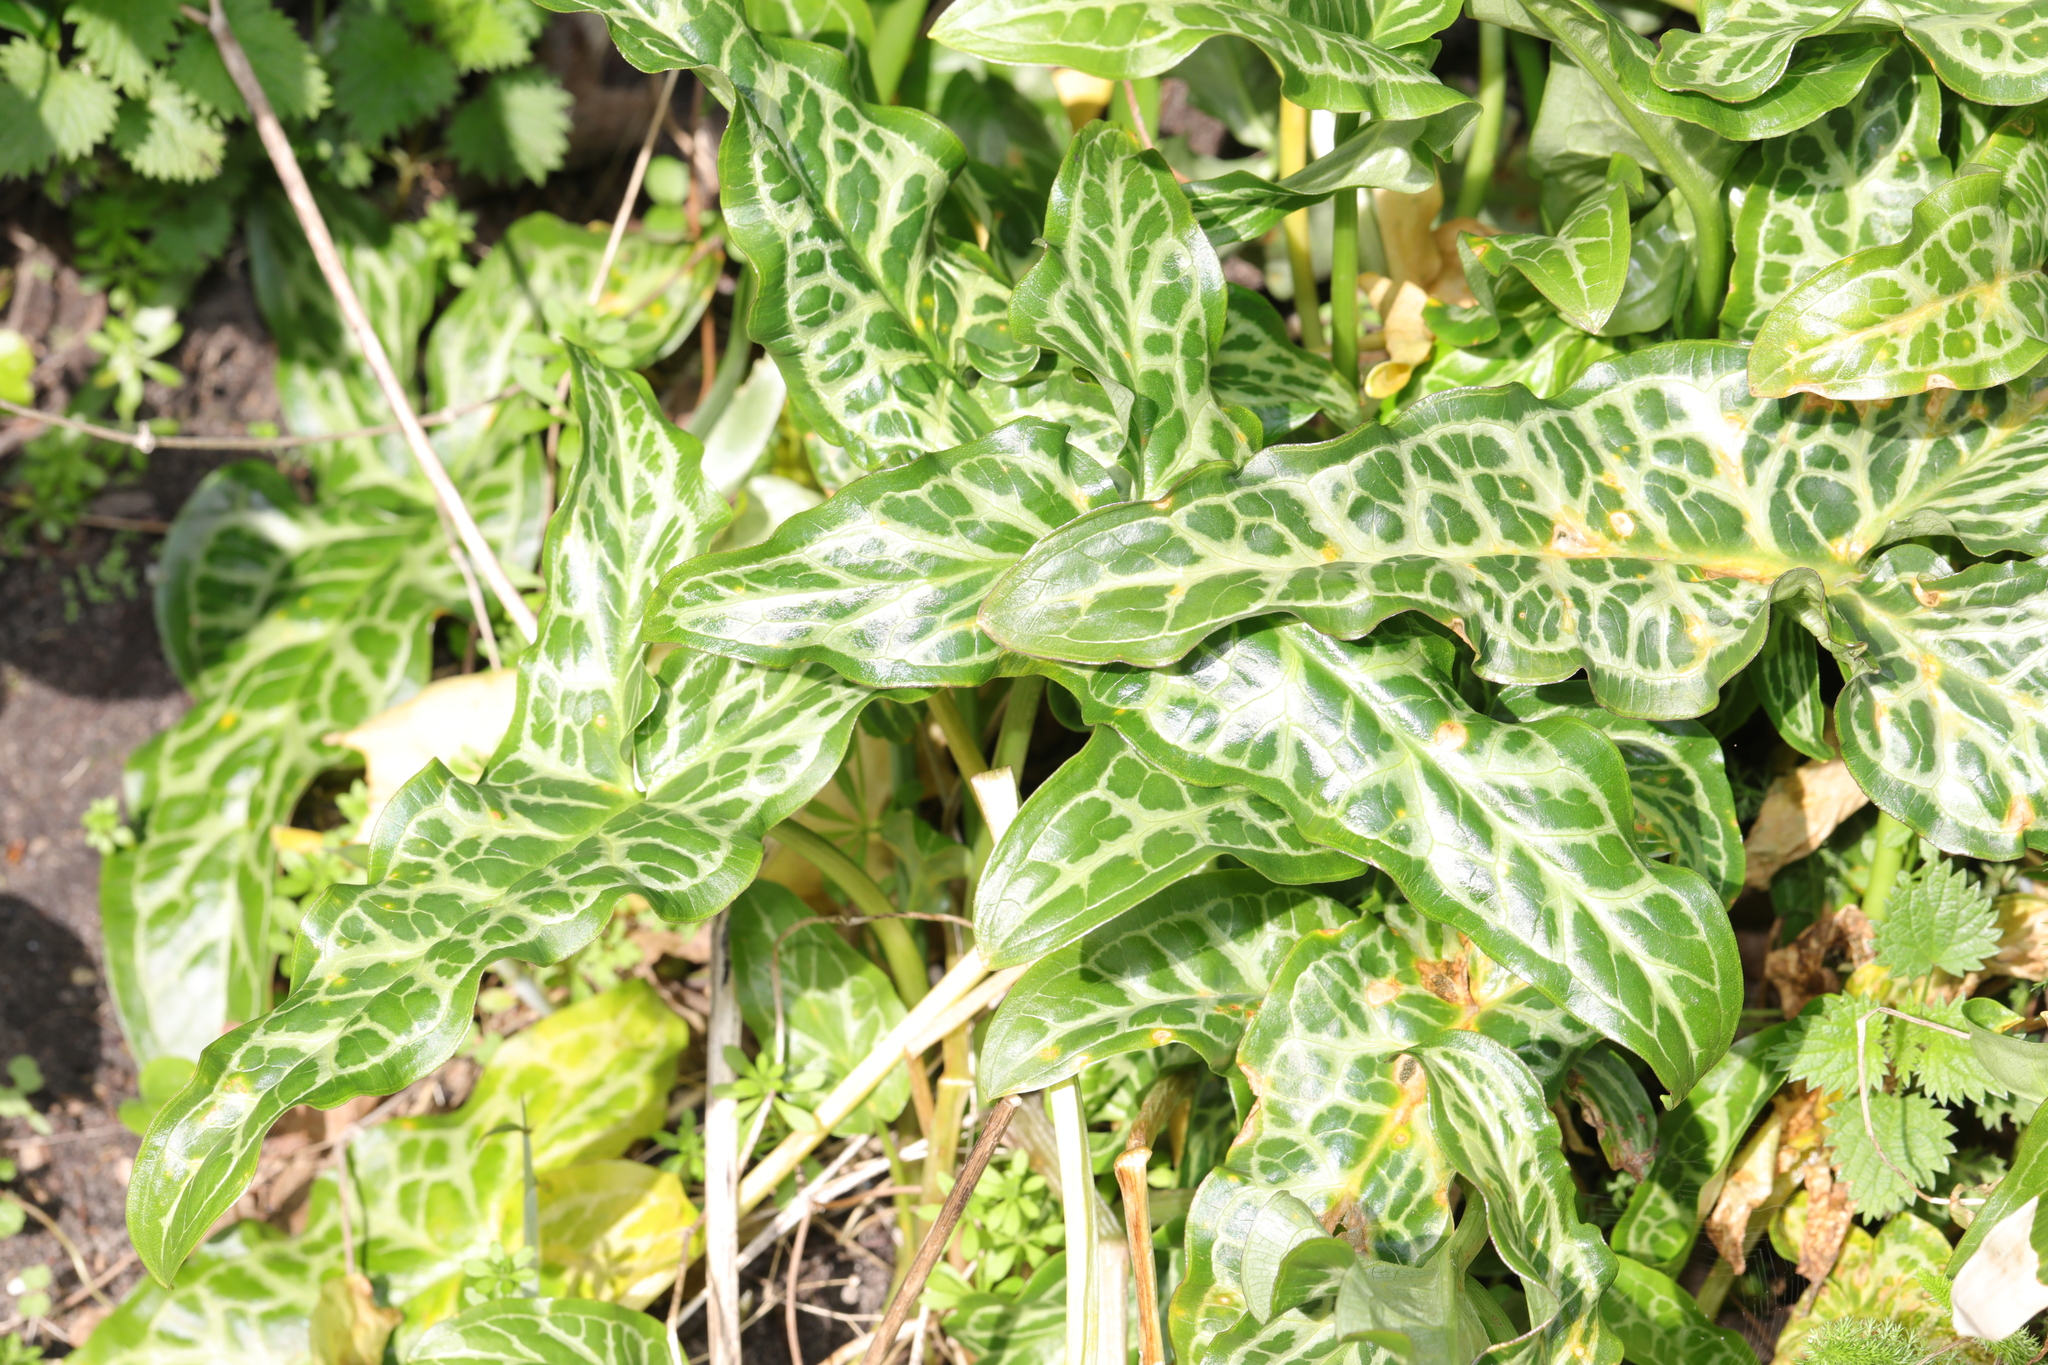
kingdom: Plantae
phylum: Tracheophyta
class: Liliopsida
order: Alismatales
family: Araceae
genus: Arum
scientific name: Arum italicum
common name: Italian lords-and-ladies
